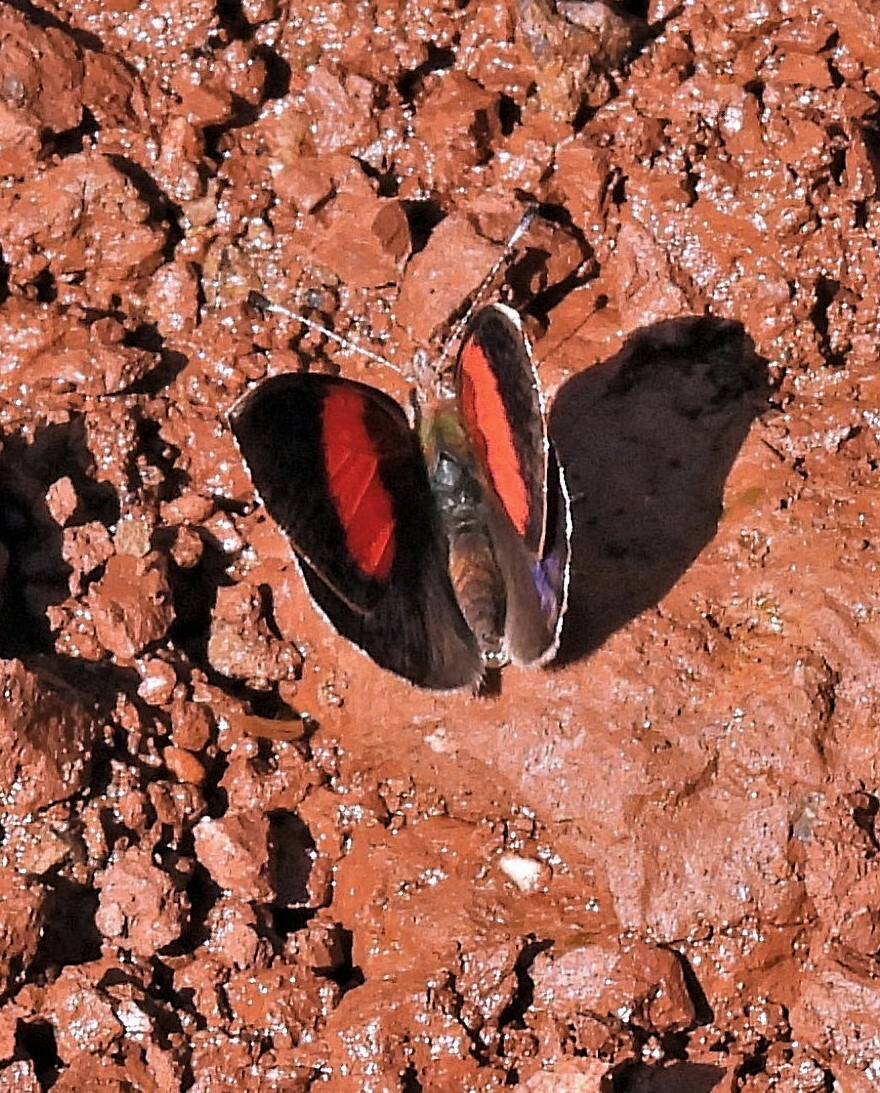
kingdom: Animalia
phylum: Arthropoda
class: Insecta
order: Lepidoptera
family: Nymphalidae
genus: Haematera
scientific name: Haematera pyrame
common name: Blind eighty-eight
